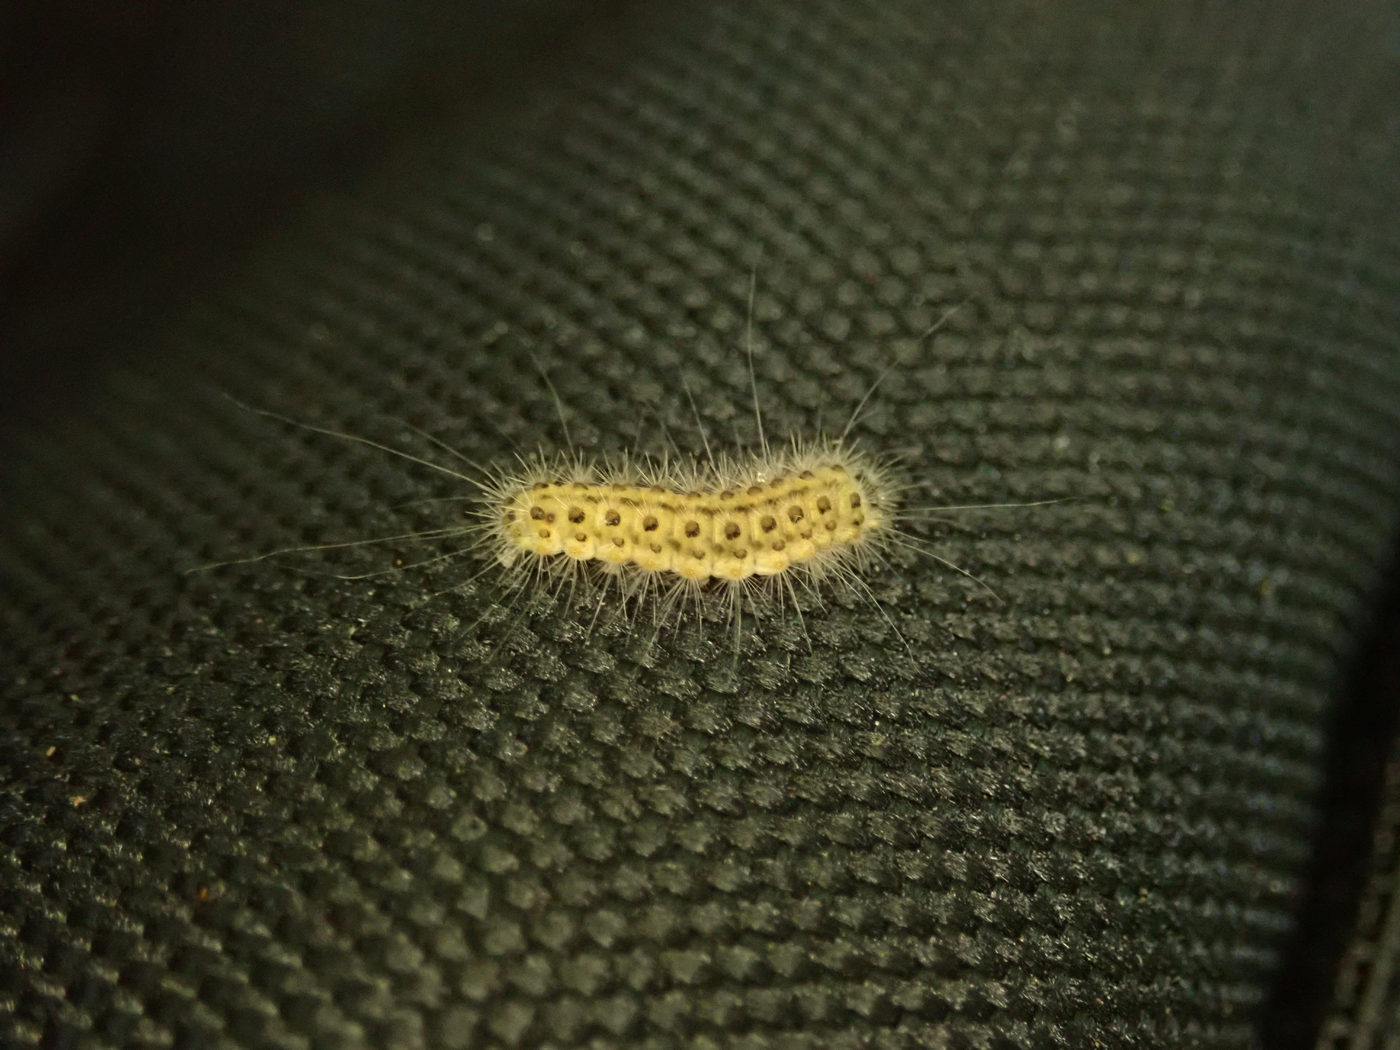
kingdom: Animalia
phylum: Arthropoda
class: Insecta
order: Lepidoptera
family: Nolidae
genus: Nola
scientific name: Nola triquetrana
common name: Three-spotted nola moth
